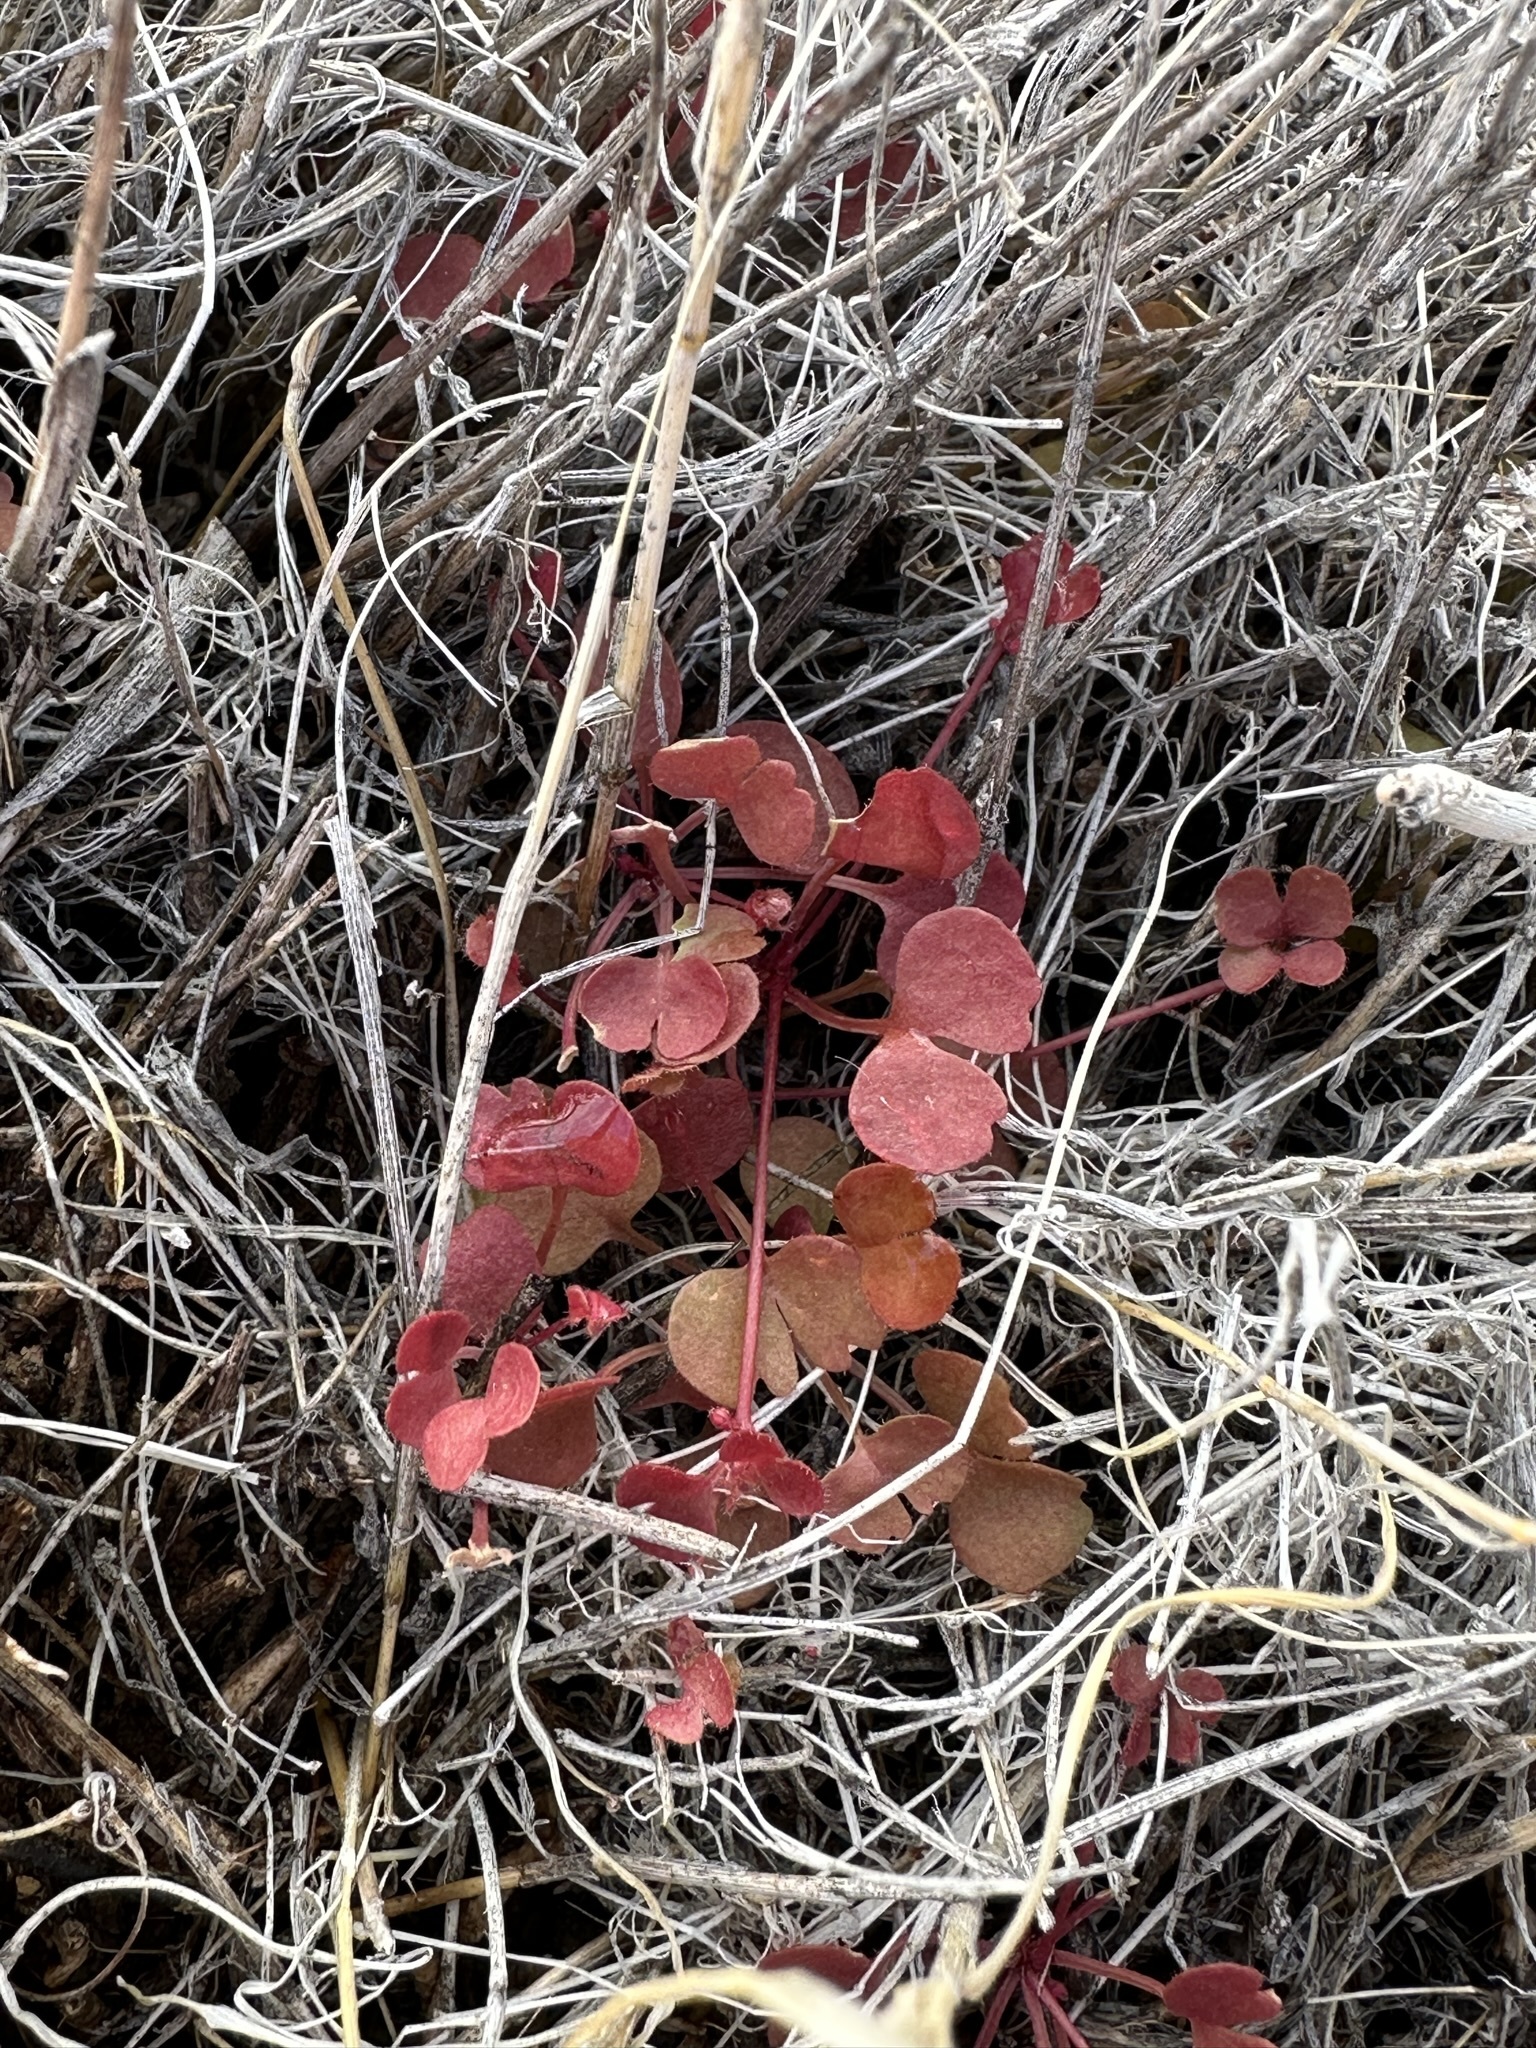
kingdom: Plantae
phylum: Tracheophyta
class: Magnoliopsida
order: Caryophyllales
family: Polygonaceae
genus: Pterostegia
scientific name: Pterostegia drymarioides
